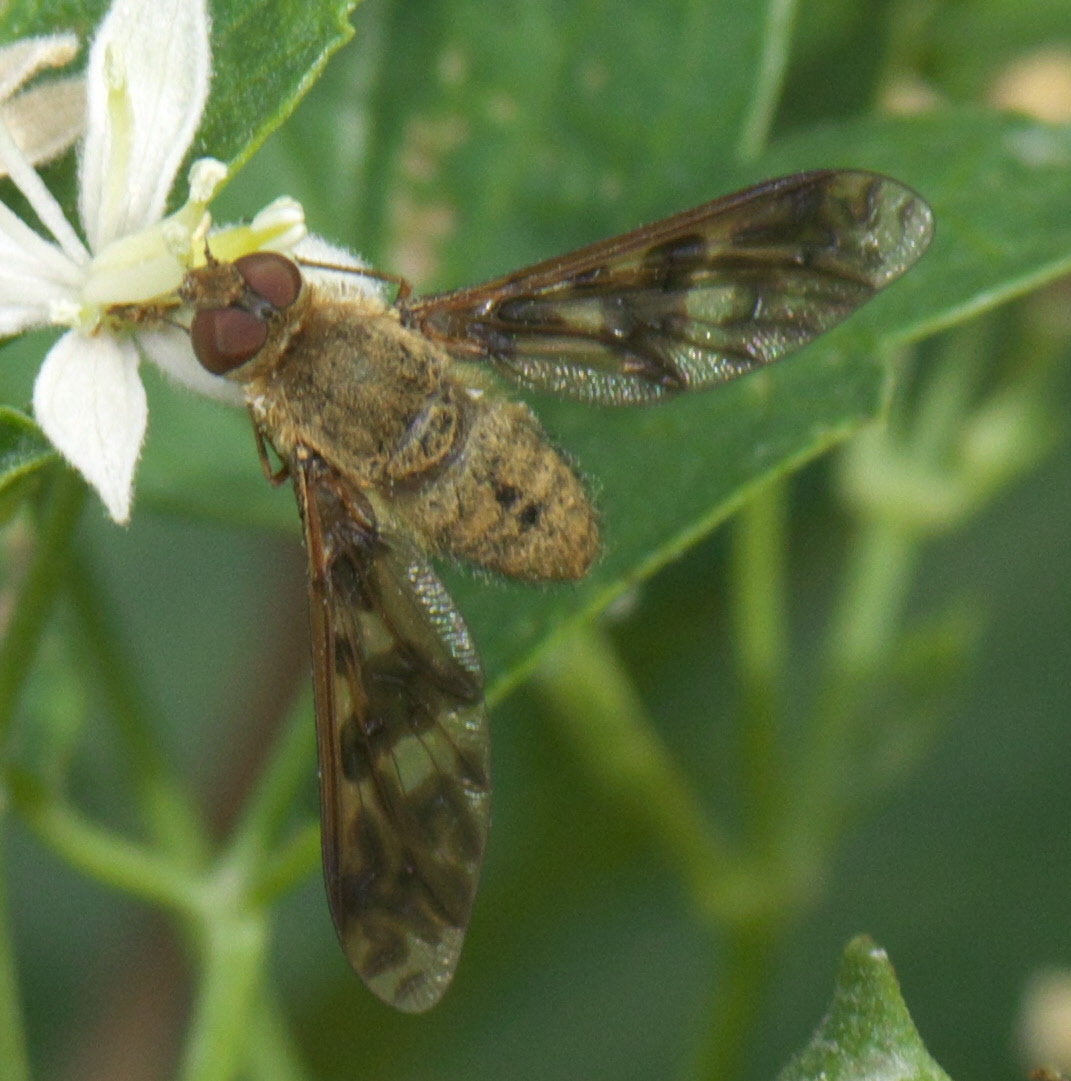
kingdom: Animalia
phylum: Arthropoda
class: Insecta
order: Diptera
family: Bombyliidae
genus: Dipalta
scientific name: Dipalta serpentina
